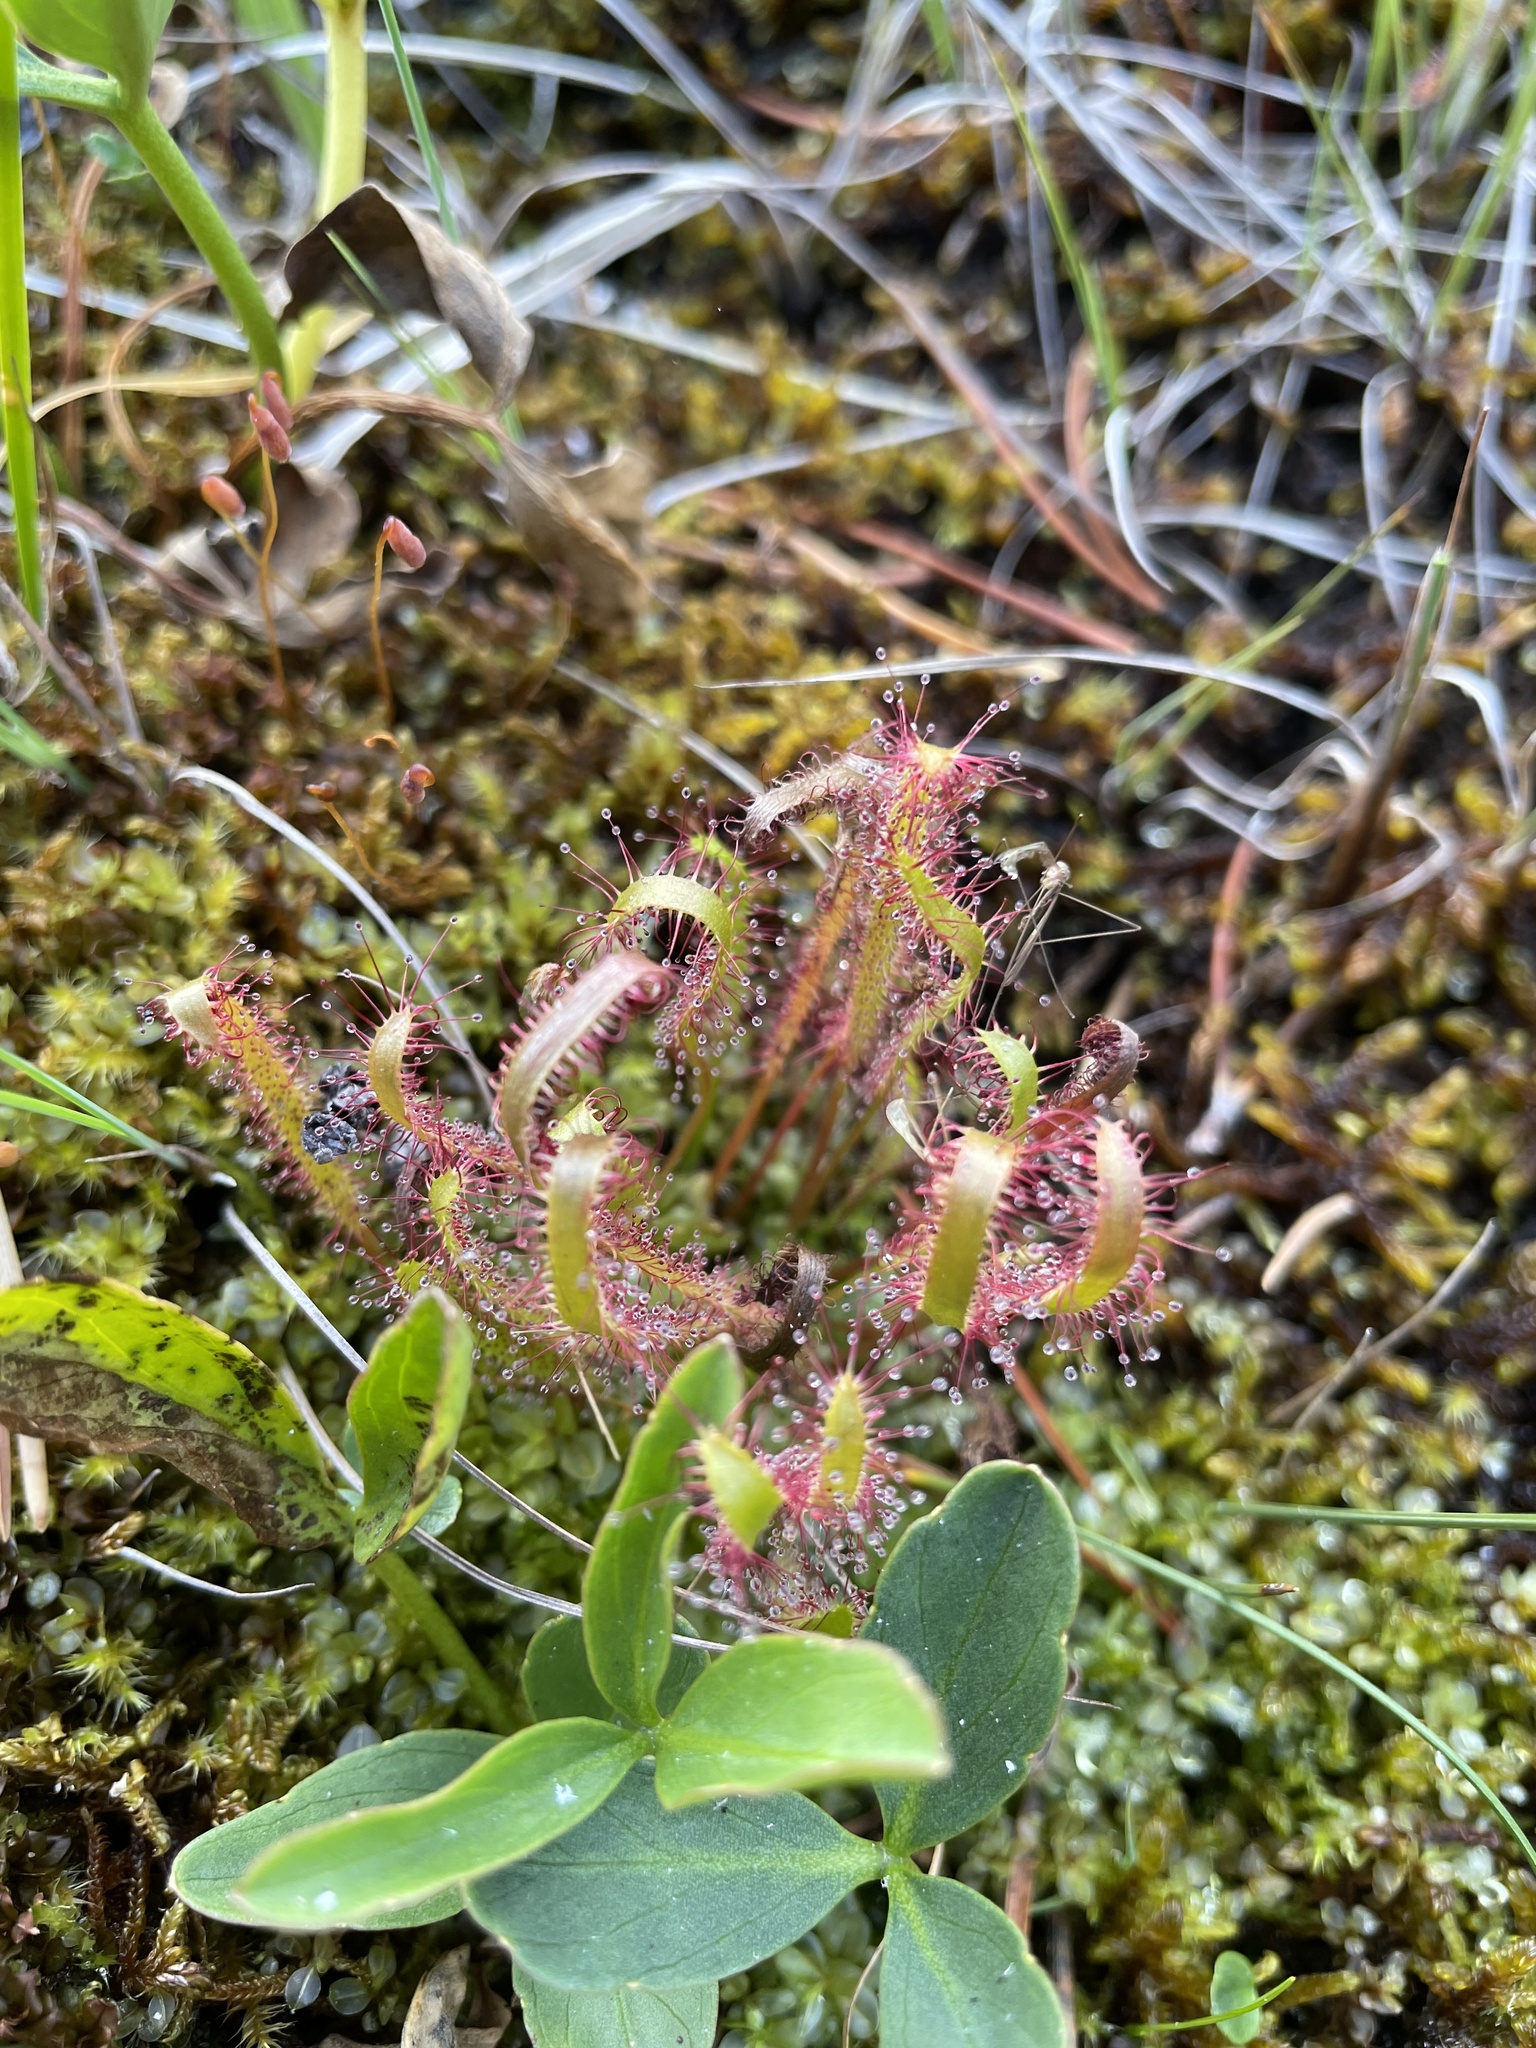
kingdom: Plantae
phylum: Tracheophyta
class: Magnoliopsida
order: Caryophyllales
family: Droseraceae
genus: Drosera
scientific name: Drosera linearis
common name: Linear-leaved sundew
